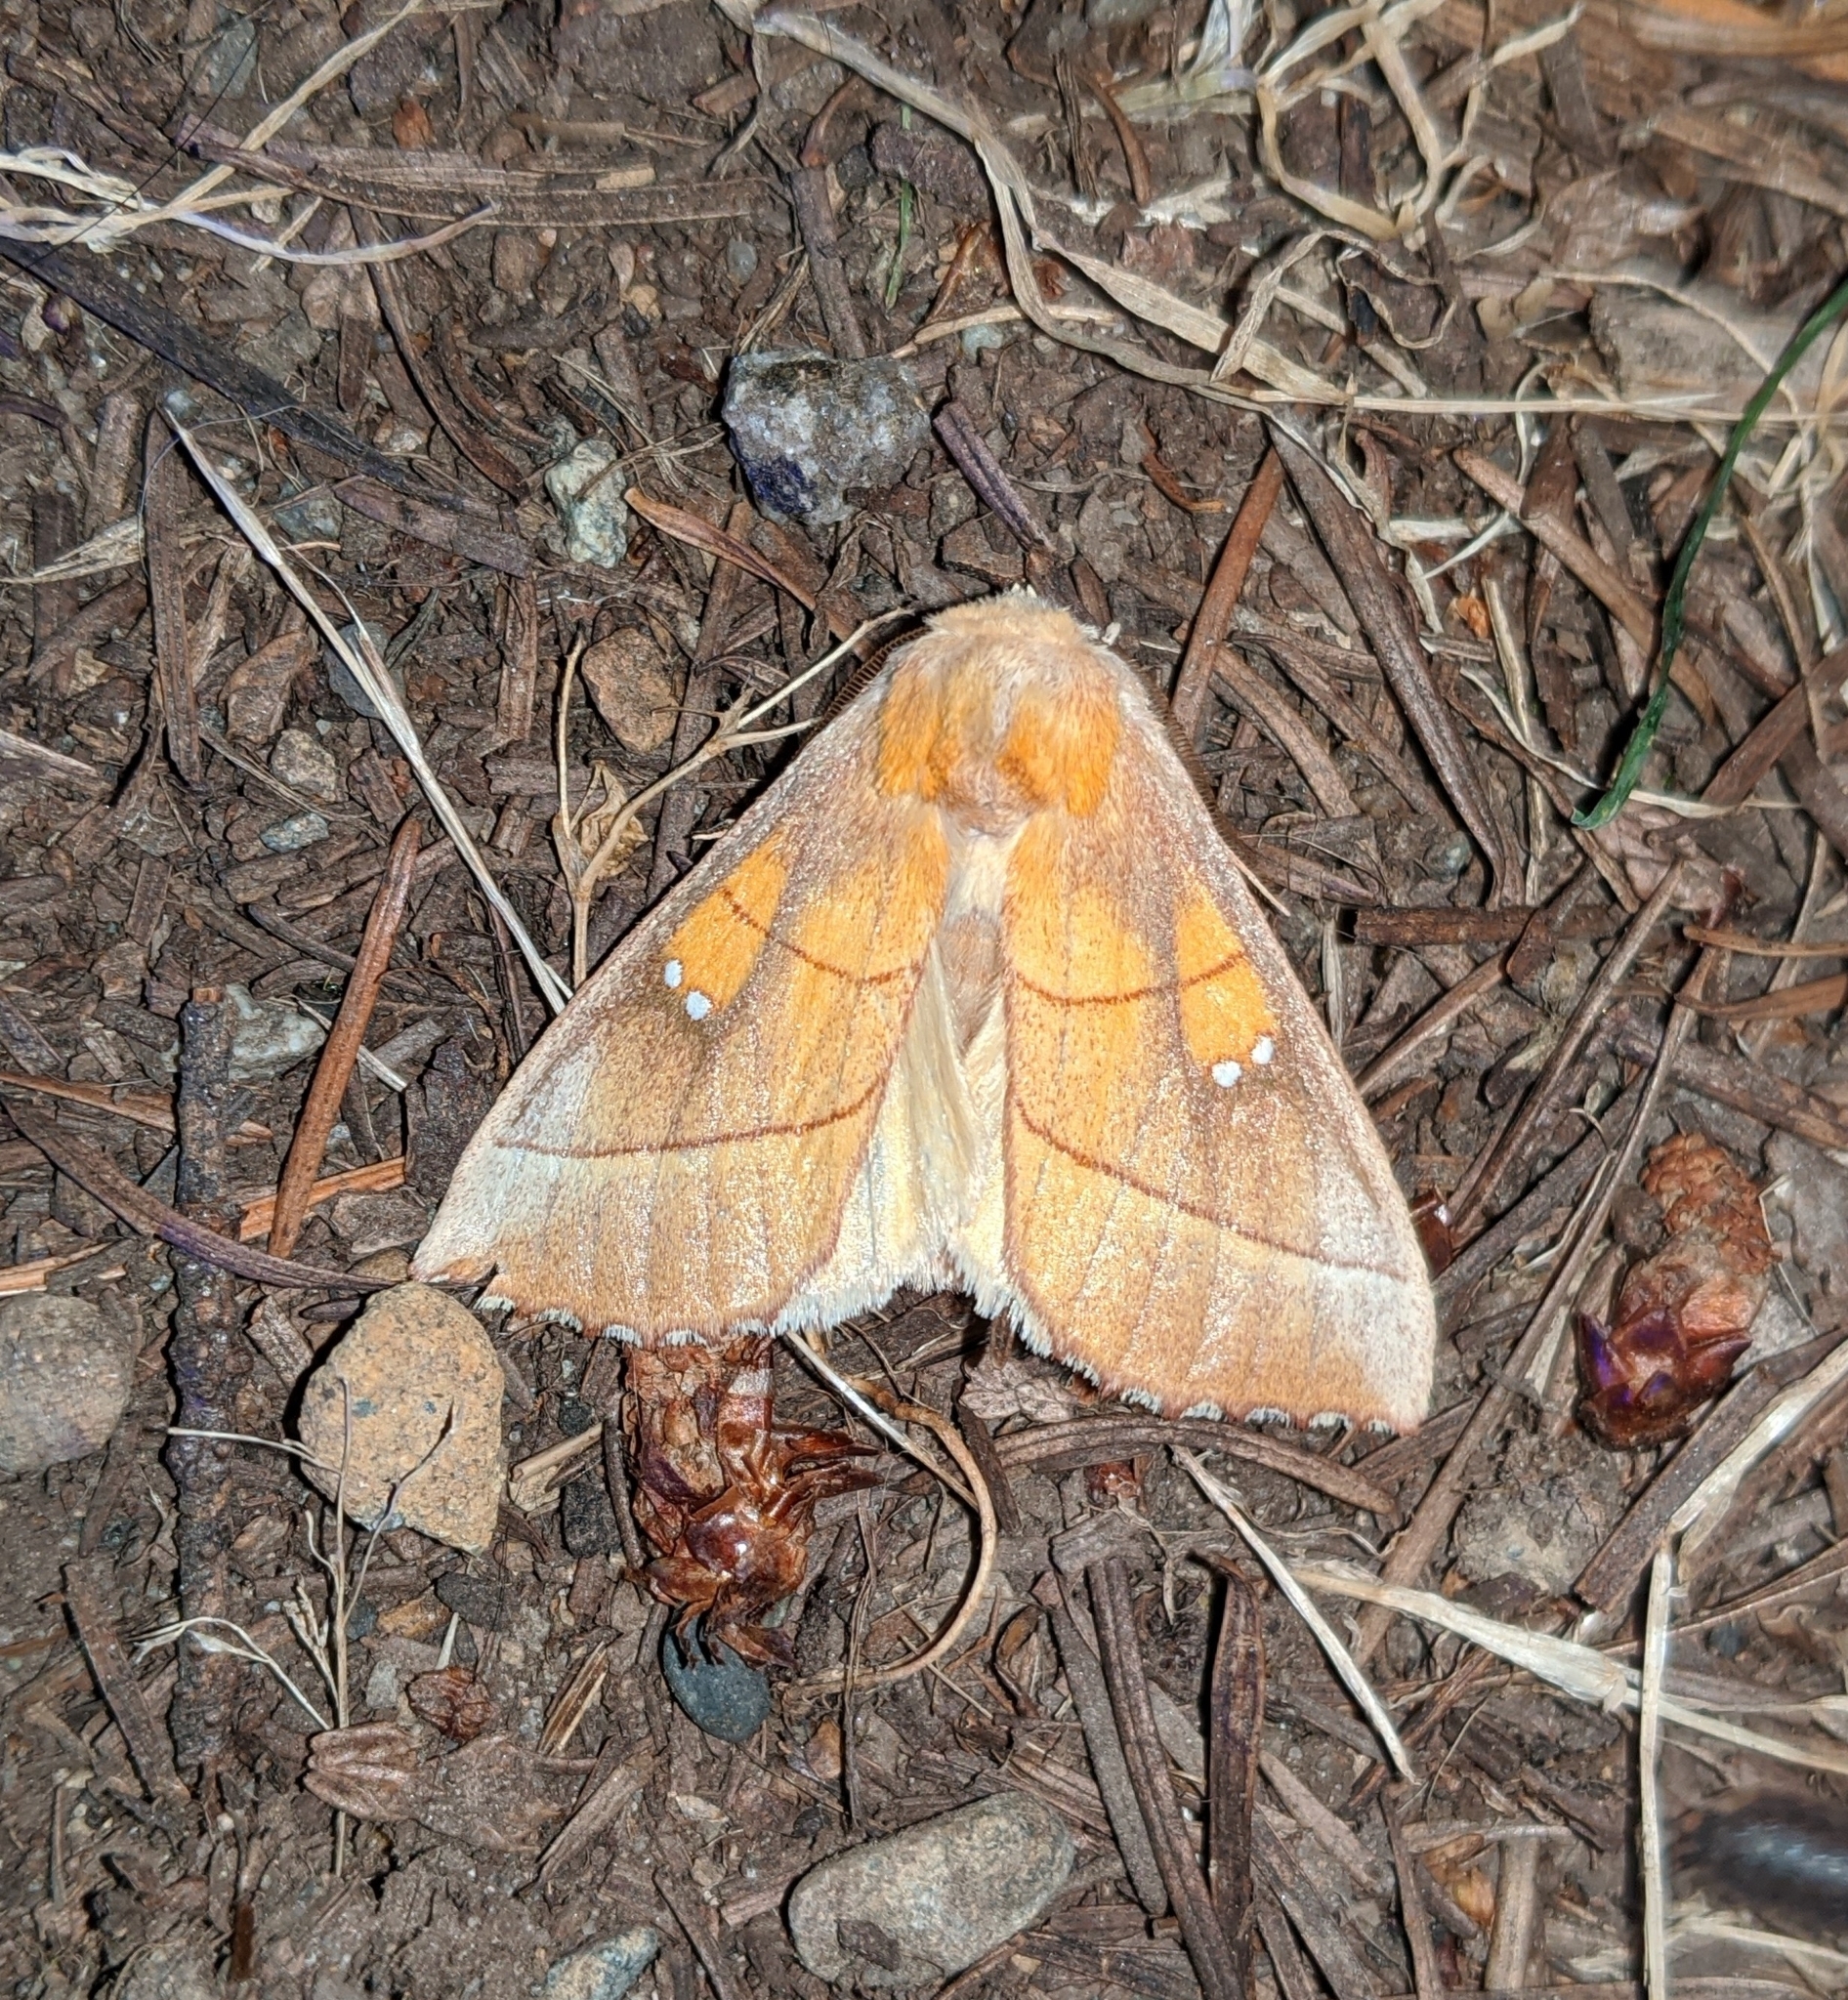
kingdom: Animalia
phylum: Arthropoda
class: Insecta
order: Lepidoptera
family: Notodontidae
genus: Nadata
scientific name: Nadata gibbosa
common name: White-dotted prominent
